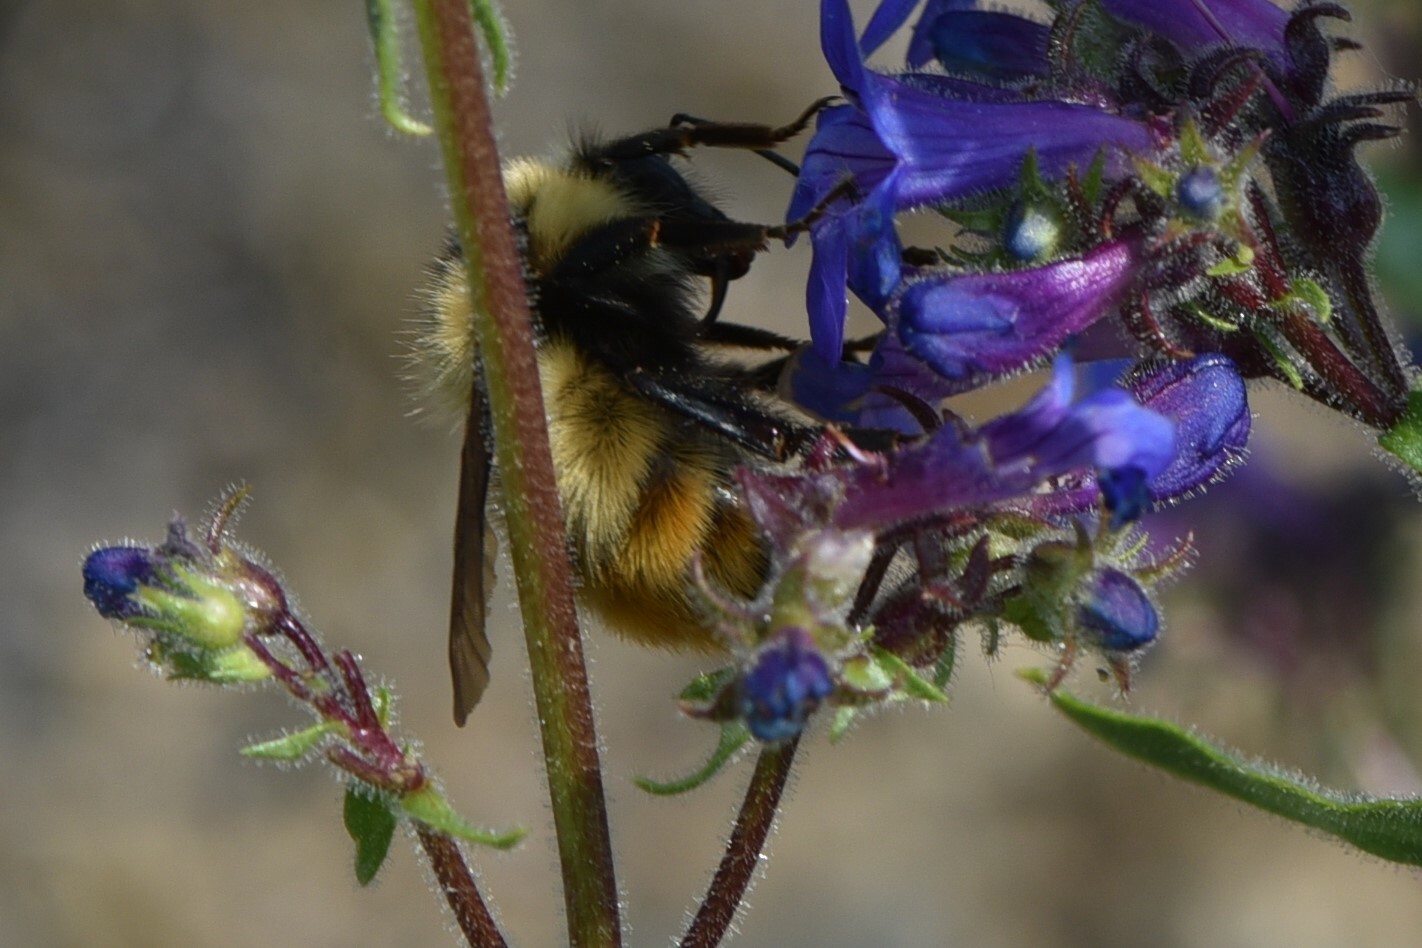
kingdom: Animalia
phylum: Arthropoda
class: Insecta
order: Hymenoptera
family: Apidae
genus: Bombus
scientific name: Bombus centralis
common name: Central bumble bee
